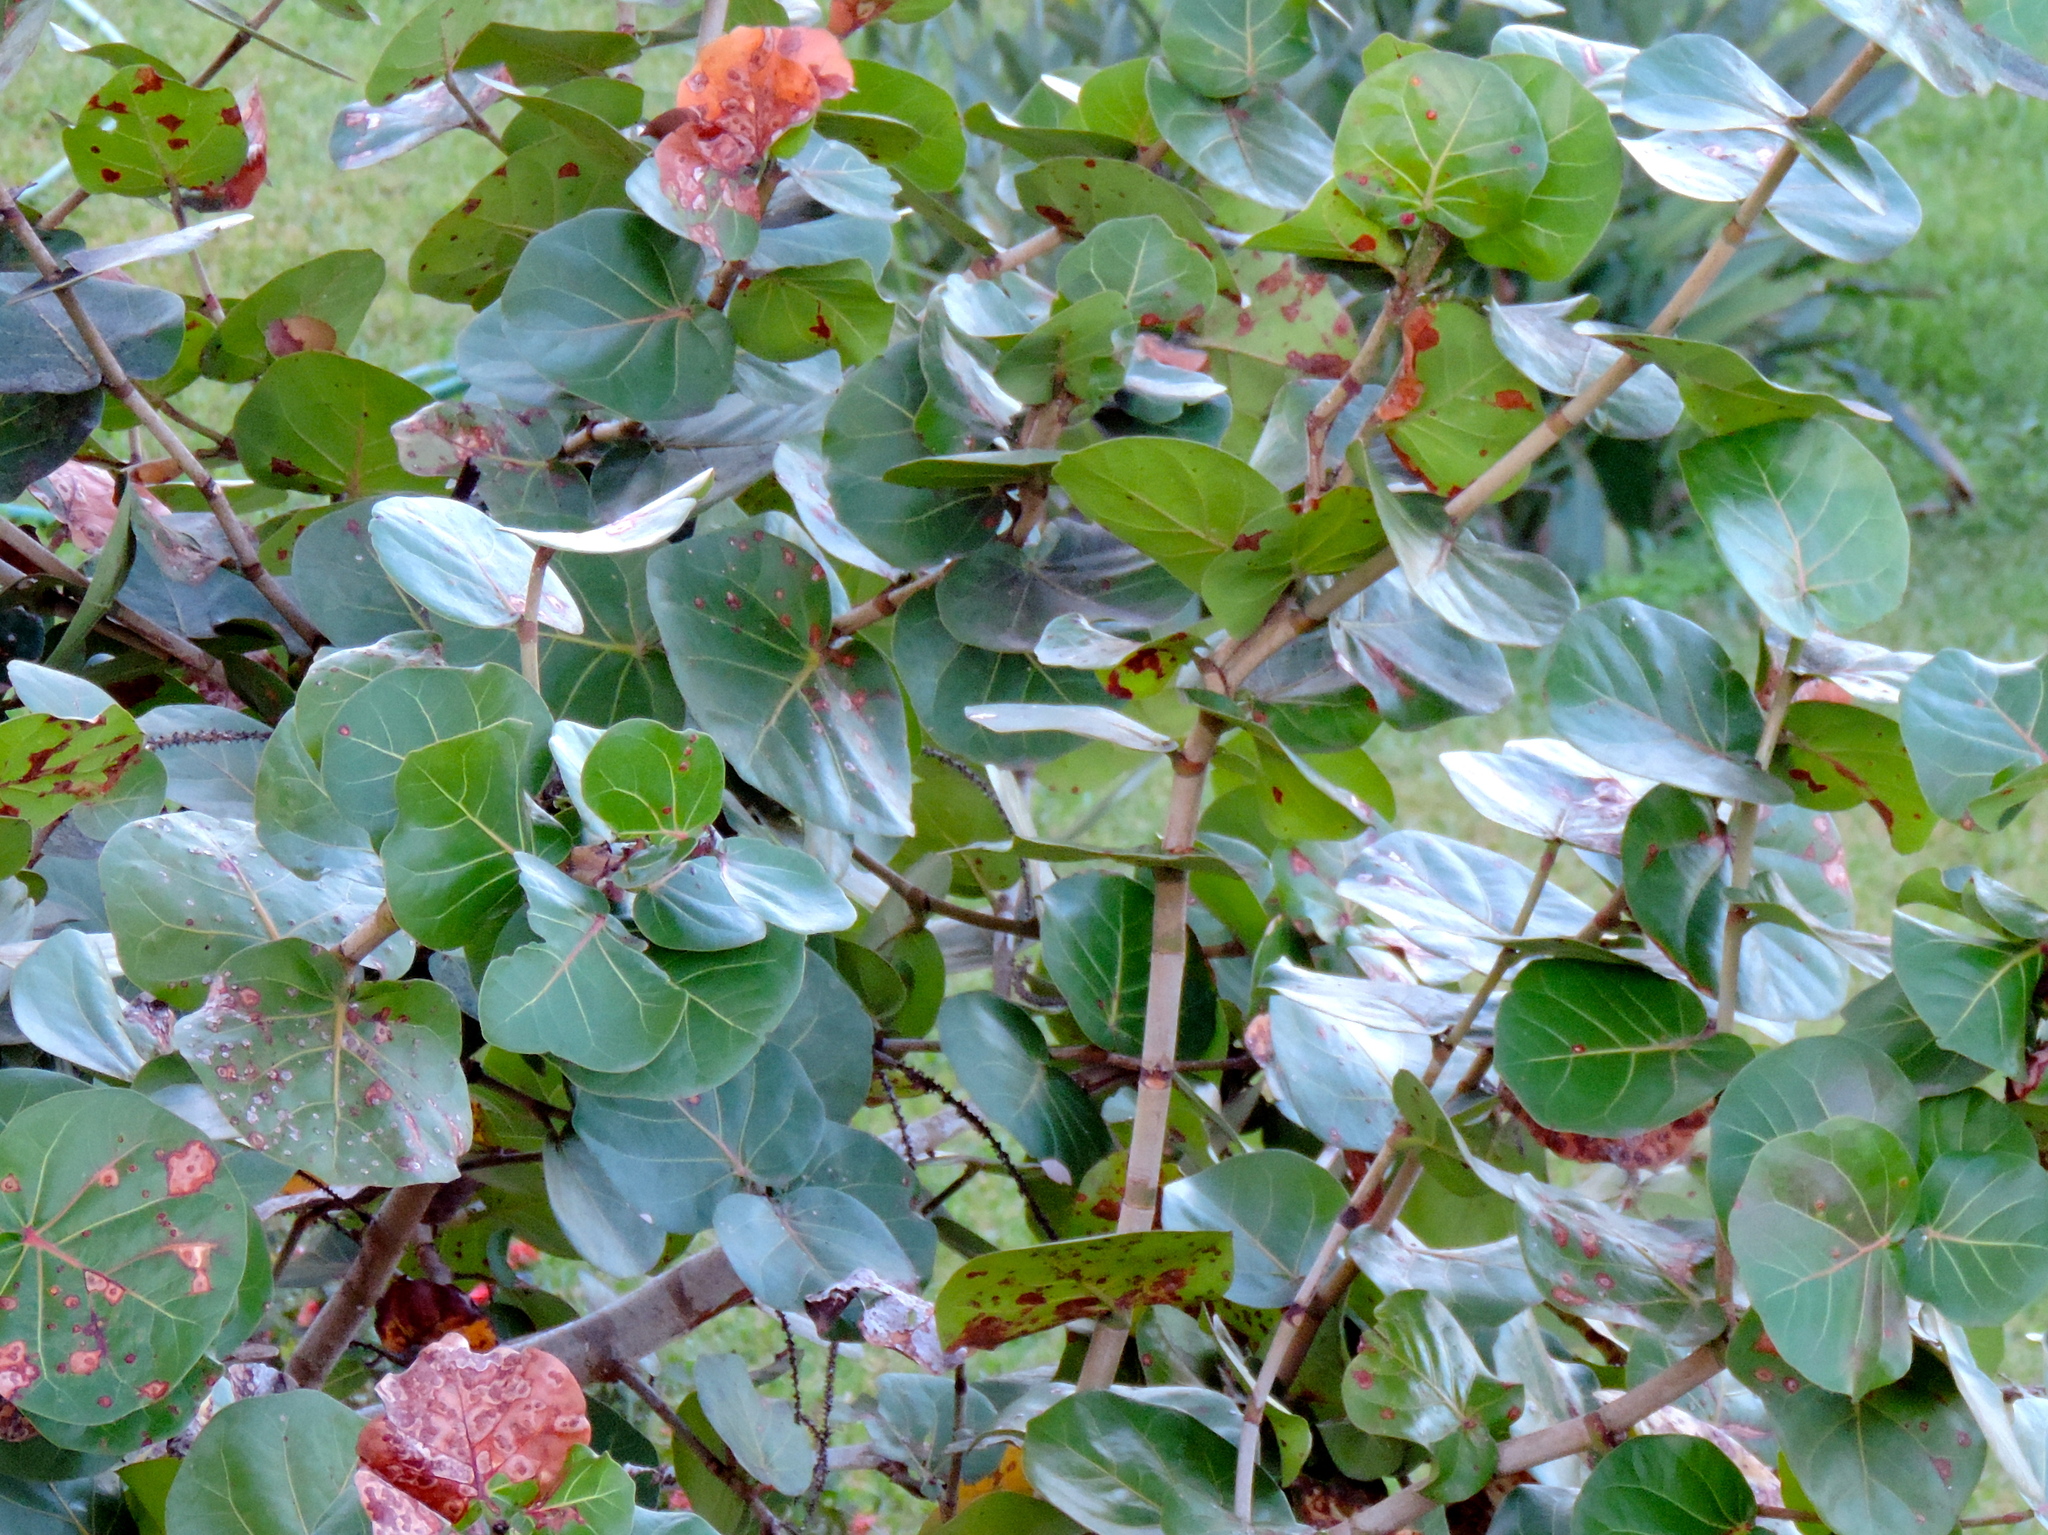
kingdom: Plantae
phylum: Tracheophyta
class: Magnoliopsida
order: Caryophyllales
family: Polygonaceae
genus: Coccoloba
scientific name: Coccoloba uvifera
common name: Seagrape
